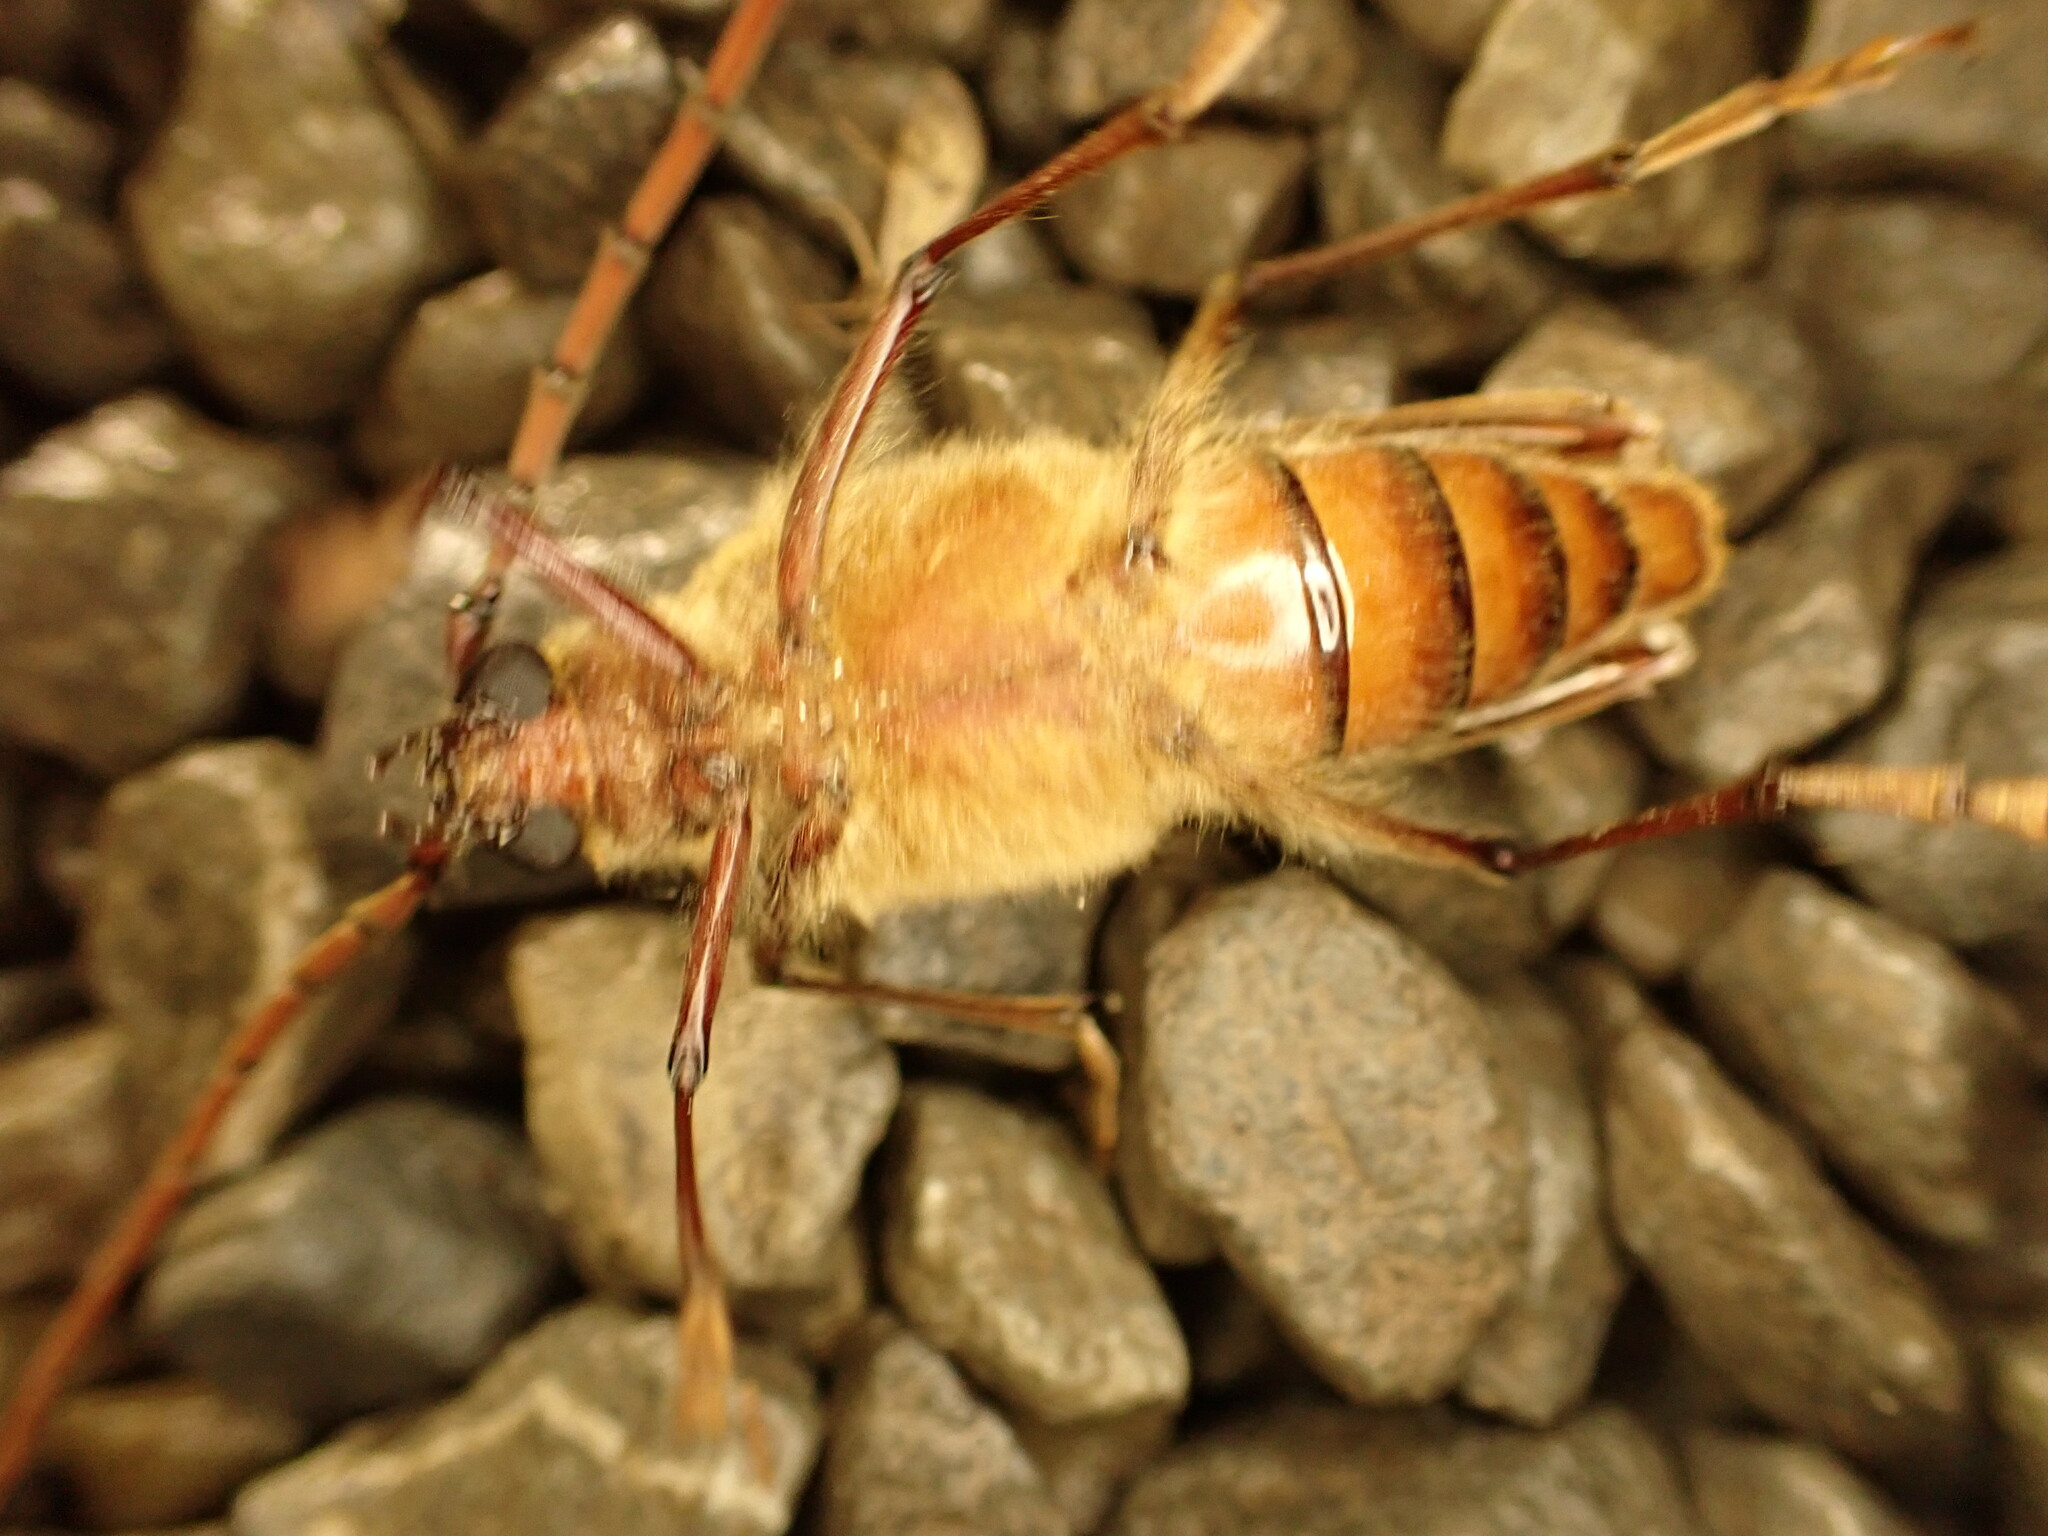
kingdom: Animalia
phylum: Arthropoda
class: Insecta
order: Coleoptera
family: Cerambycidae
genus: Ochrocydus
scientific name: Ochrocydus huttoni
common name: Kanuka longhorn
